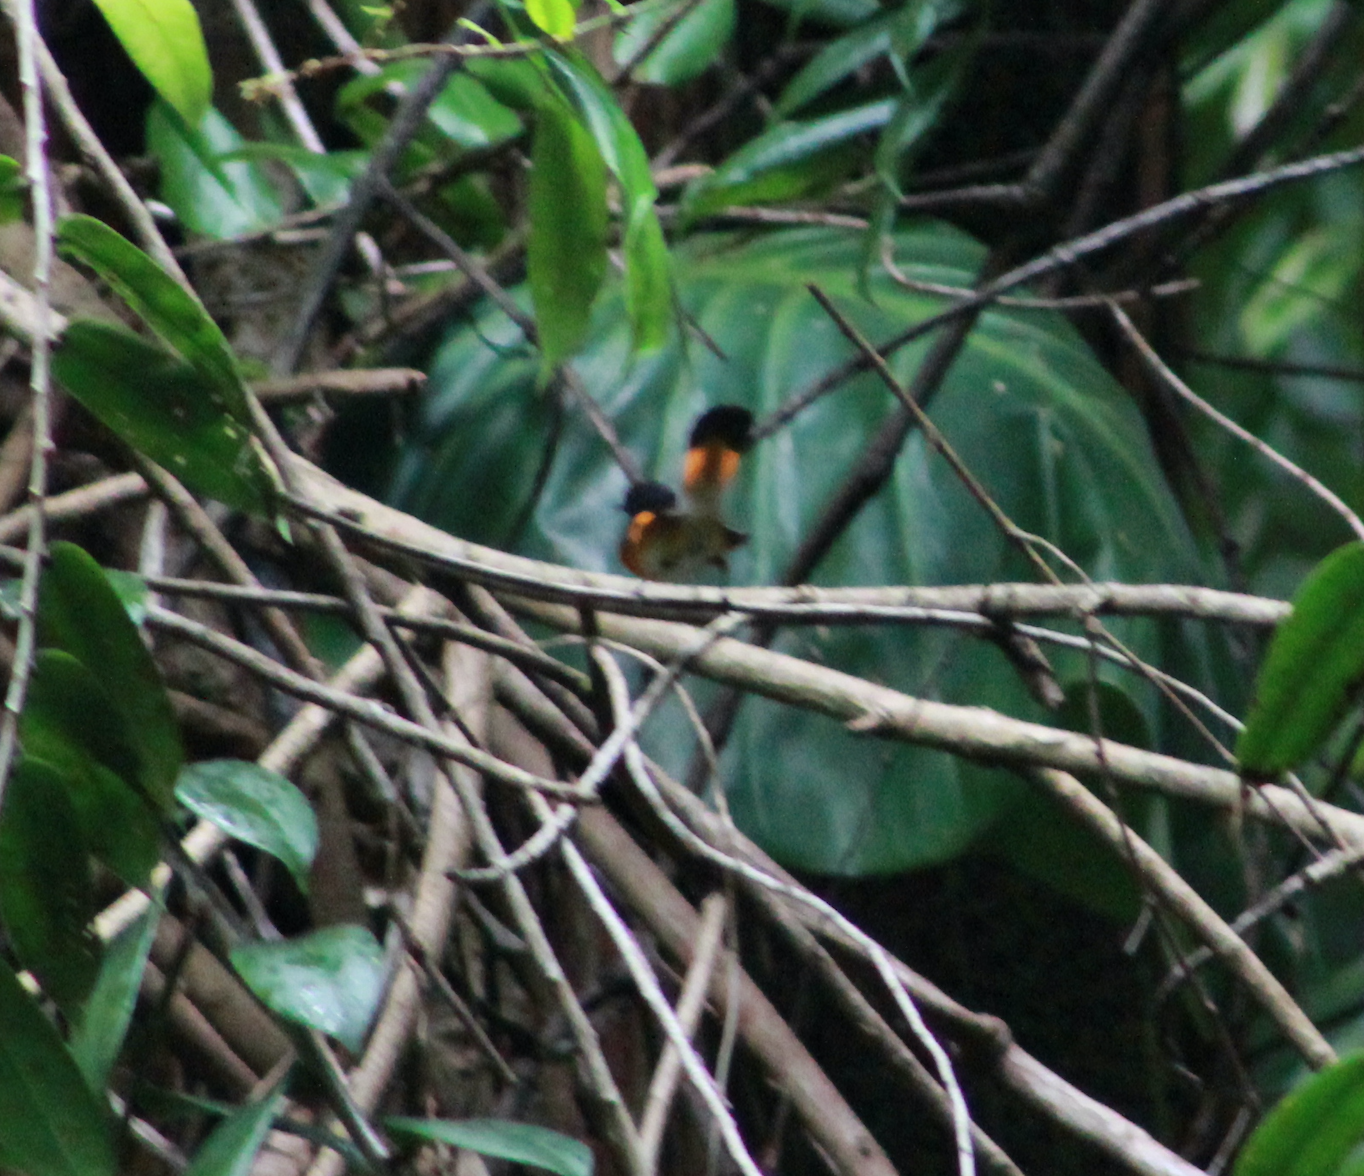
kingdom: Animalia
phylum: Chordata
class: Aves
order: Passeriformes
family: Parulidae
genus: Setophaga
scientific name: Setophaga ruticilla
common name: American redstart
